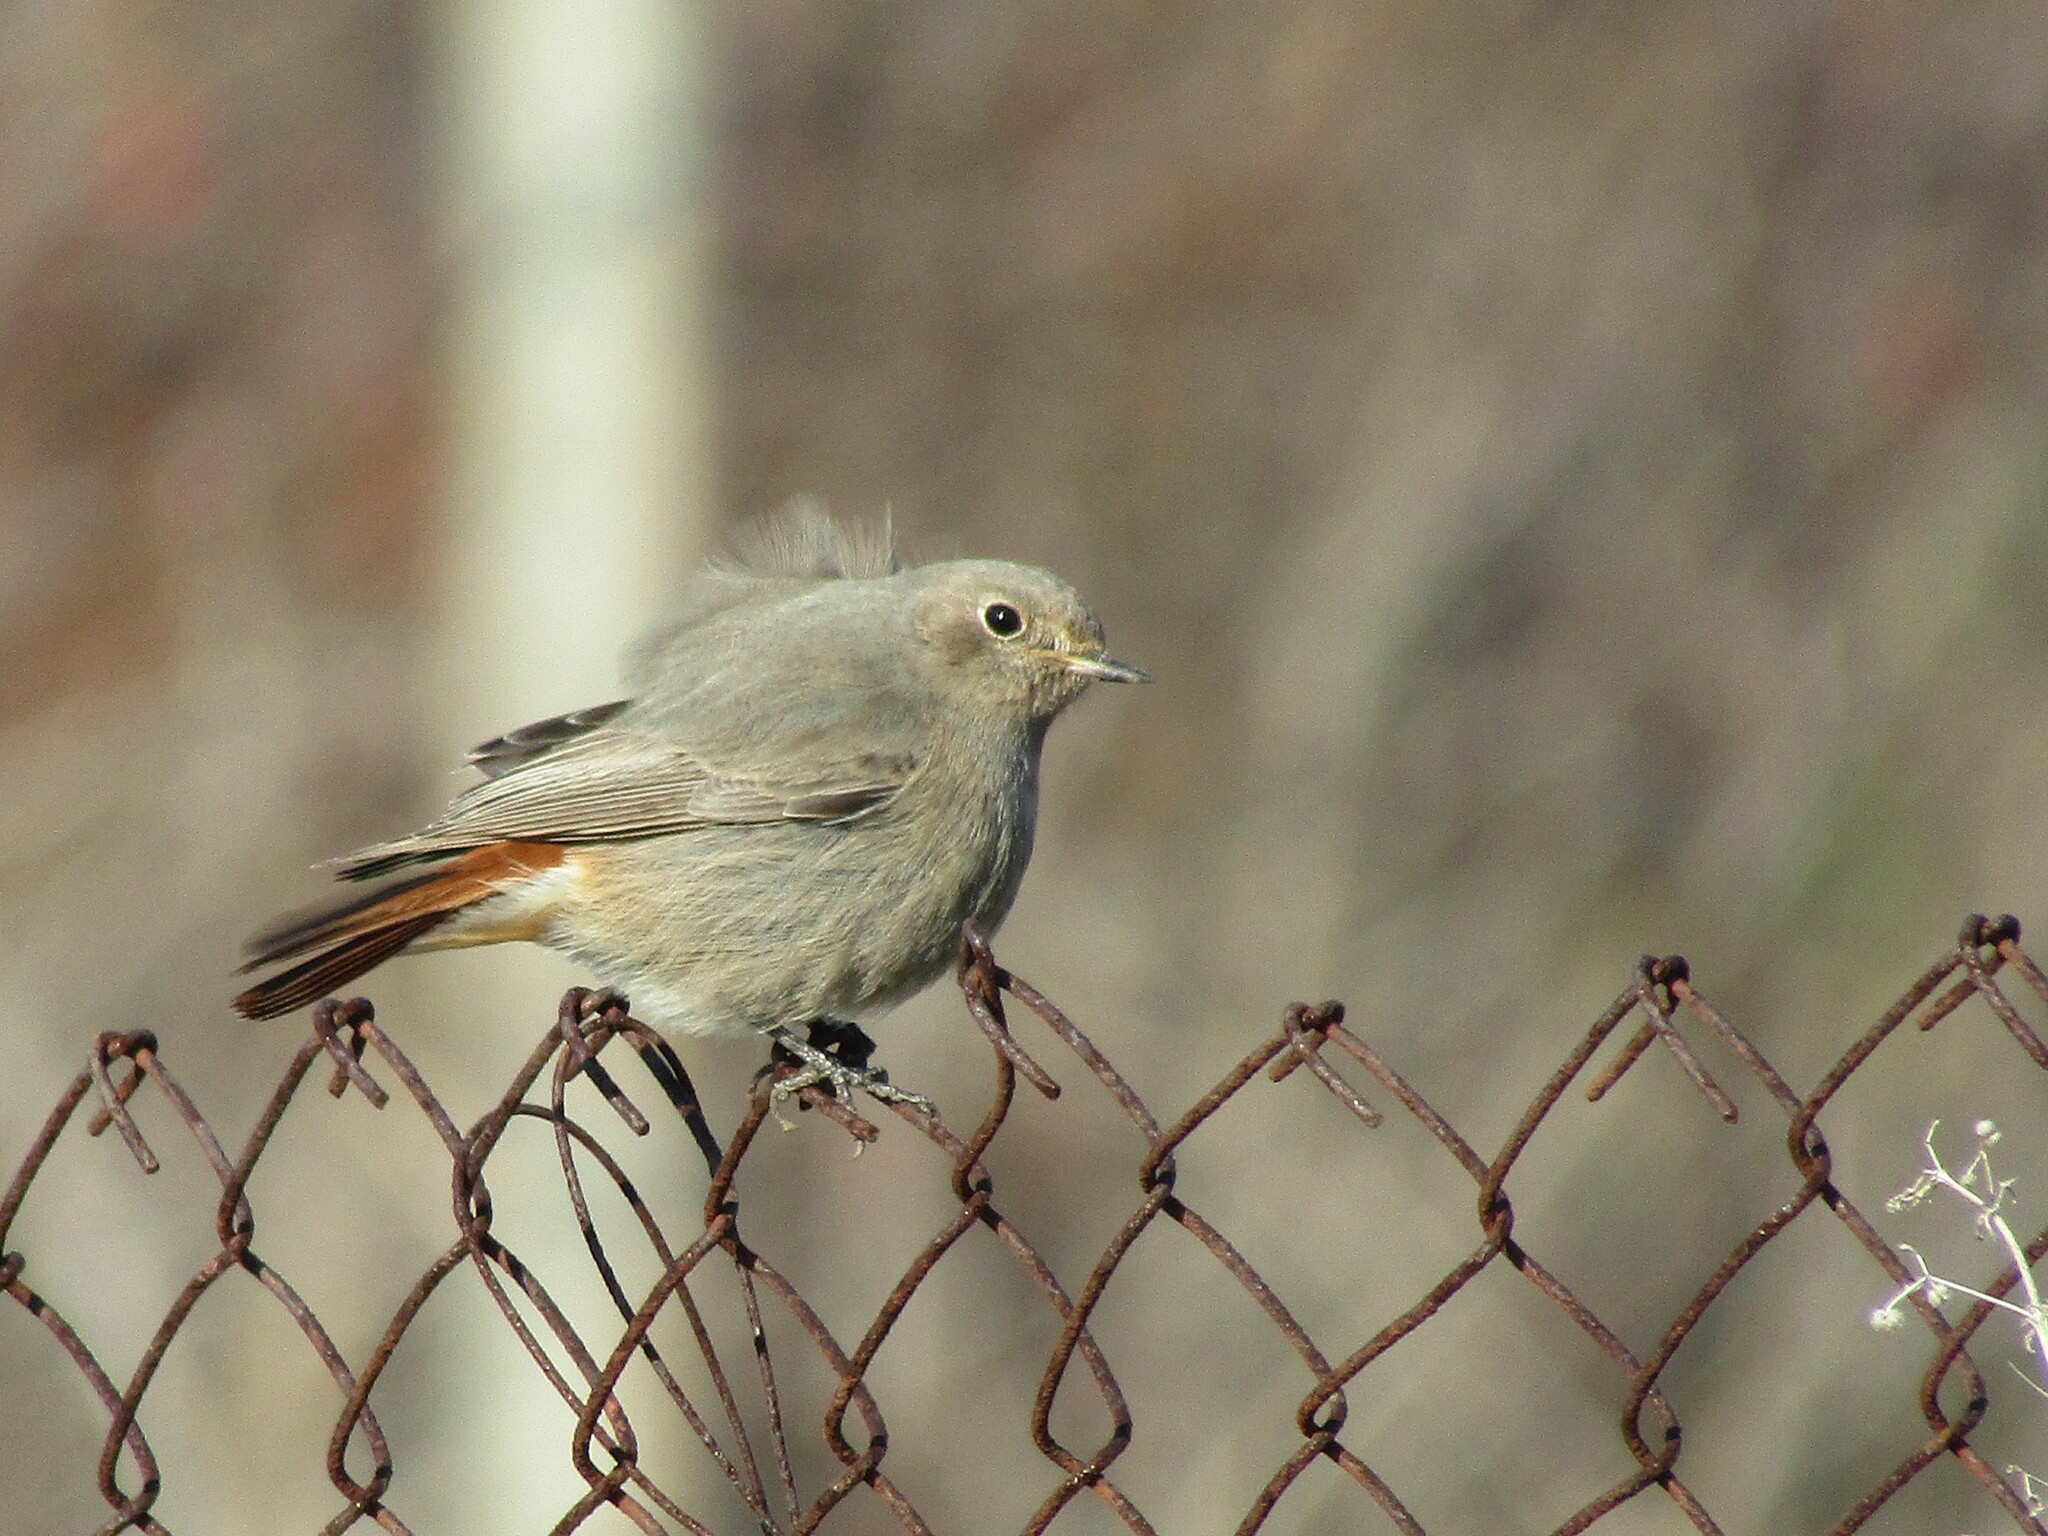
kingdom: Animalia
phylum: Chordata
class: Aves
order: Passeriformes
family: Muscicapidae
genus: Phoenicurus
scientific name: Phoenicurus ochruros
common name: Black redstart
